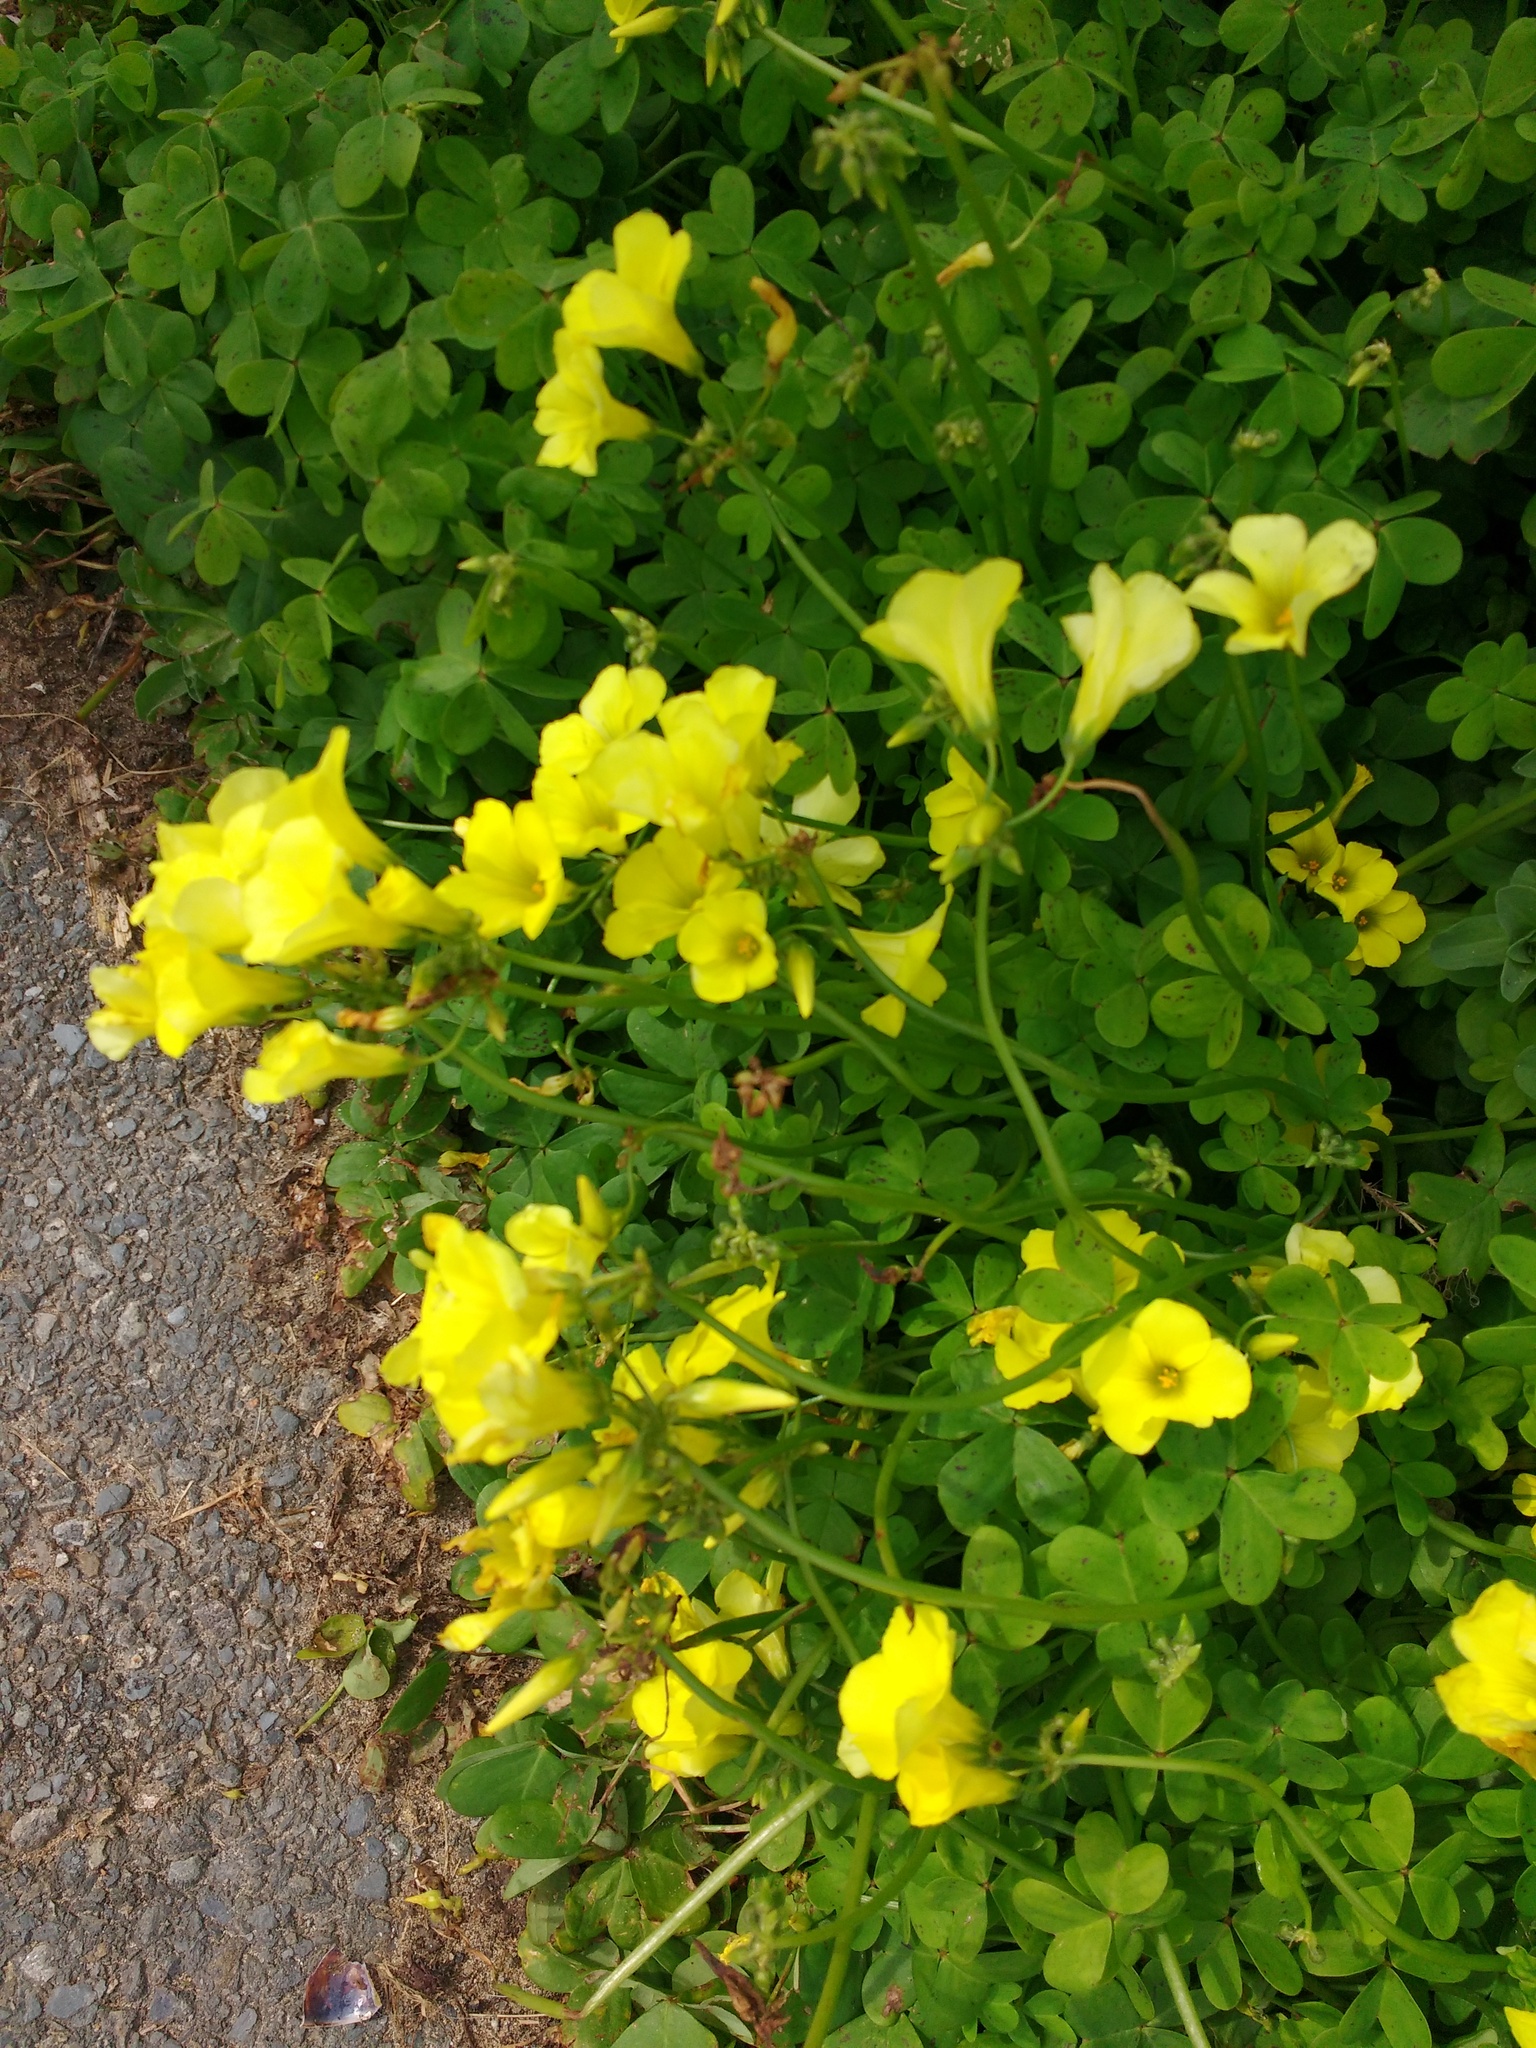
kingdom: Plantae
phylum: Tracheophyta
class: Magnoliopsida
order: Oxalidales
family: Oxalidaceae
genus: Oxalis
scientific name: Oxalis pes-caprae
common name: Bermuda-buttercup
